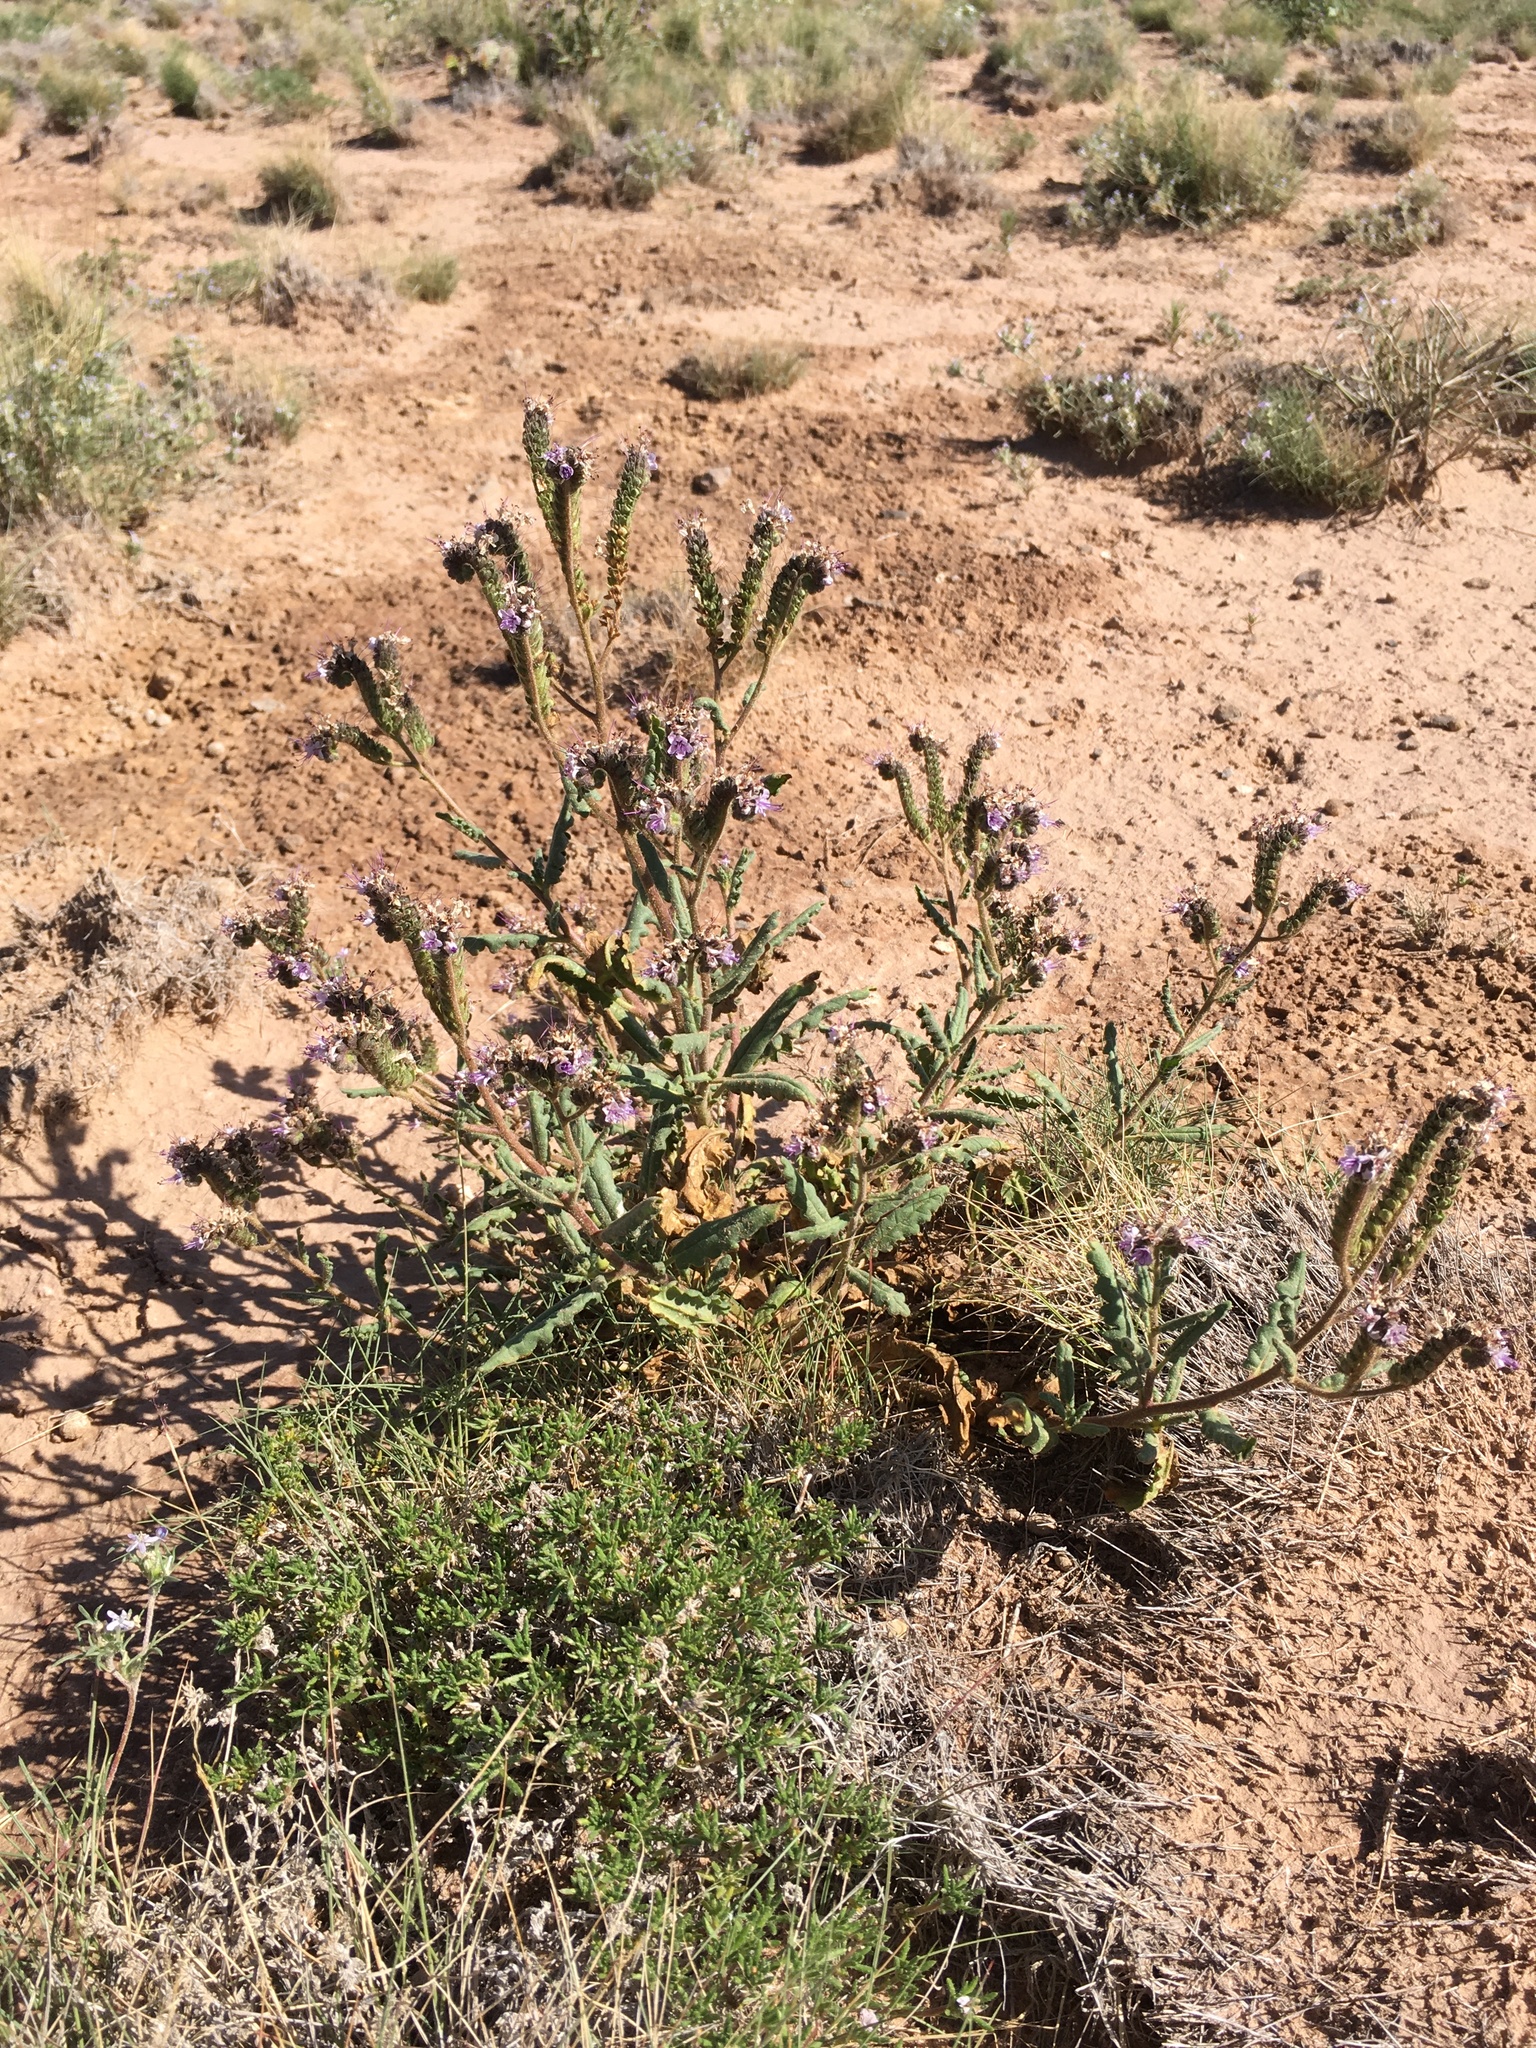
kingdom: Plantae
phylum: Tracheophyta
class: Magnoliopsida
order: Boraginales
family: Hydrophyllaceae
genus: Phacelia
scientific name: Phacelia integrifolia
